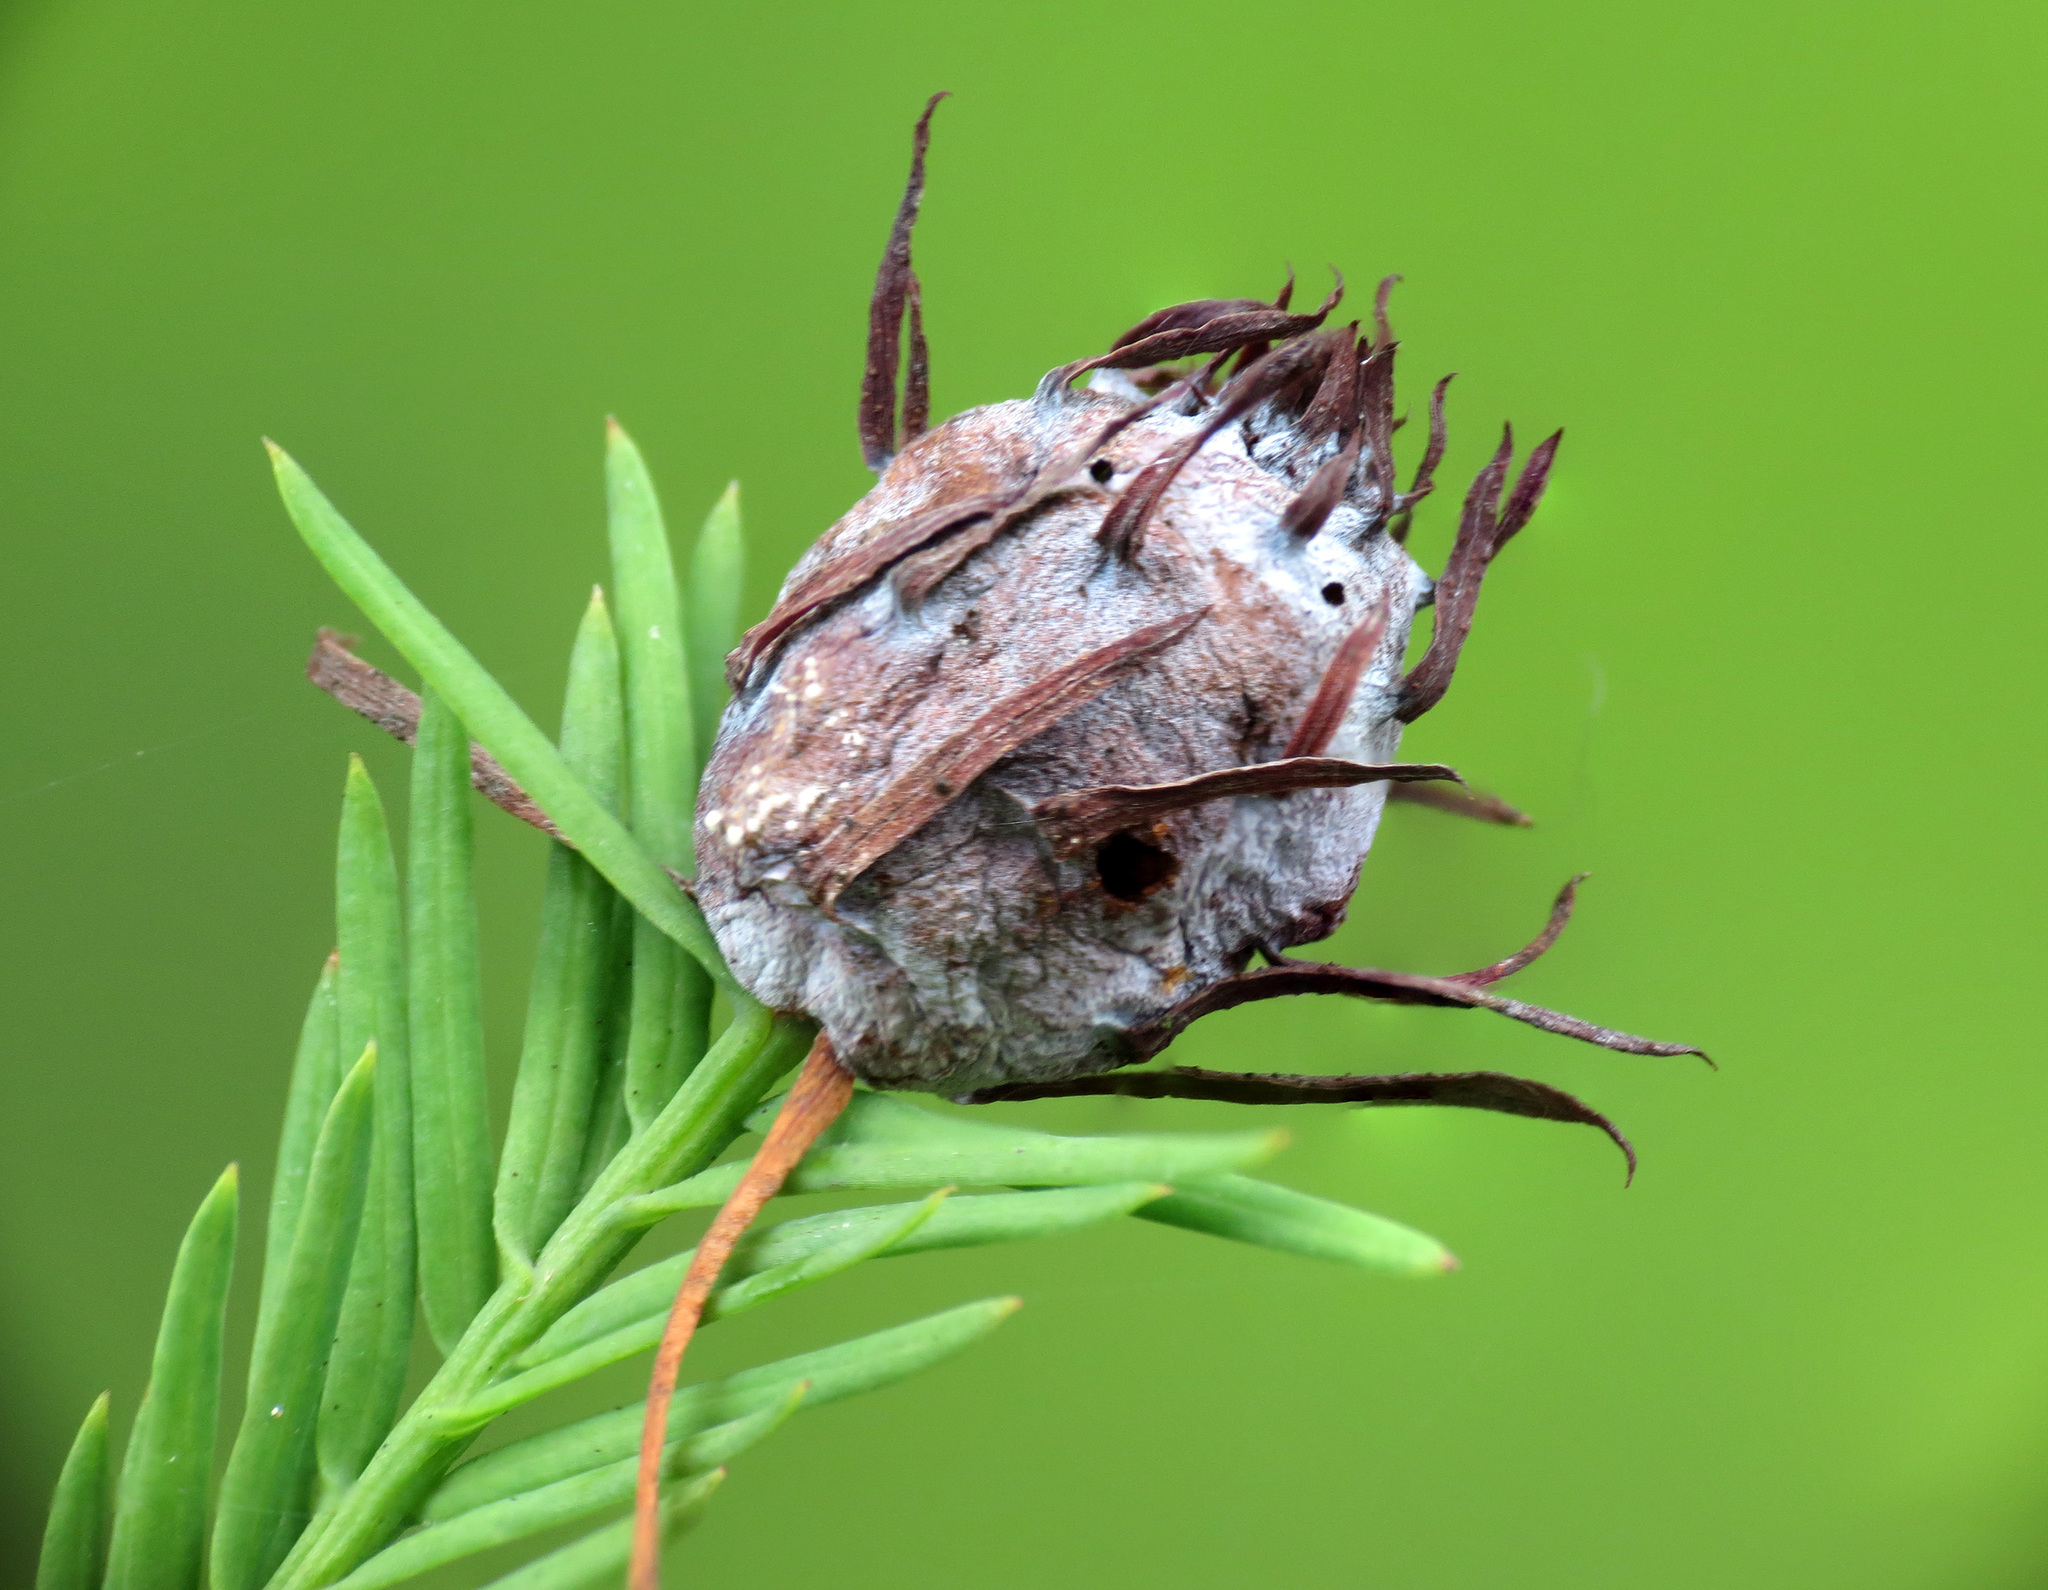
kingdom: Animalia
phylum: Arthropoda
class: Insecta
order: Diptera
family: Cecidomyiidae
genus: Taxodiomyia
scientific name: Taxodiomyia cupressiananassa
